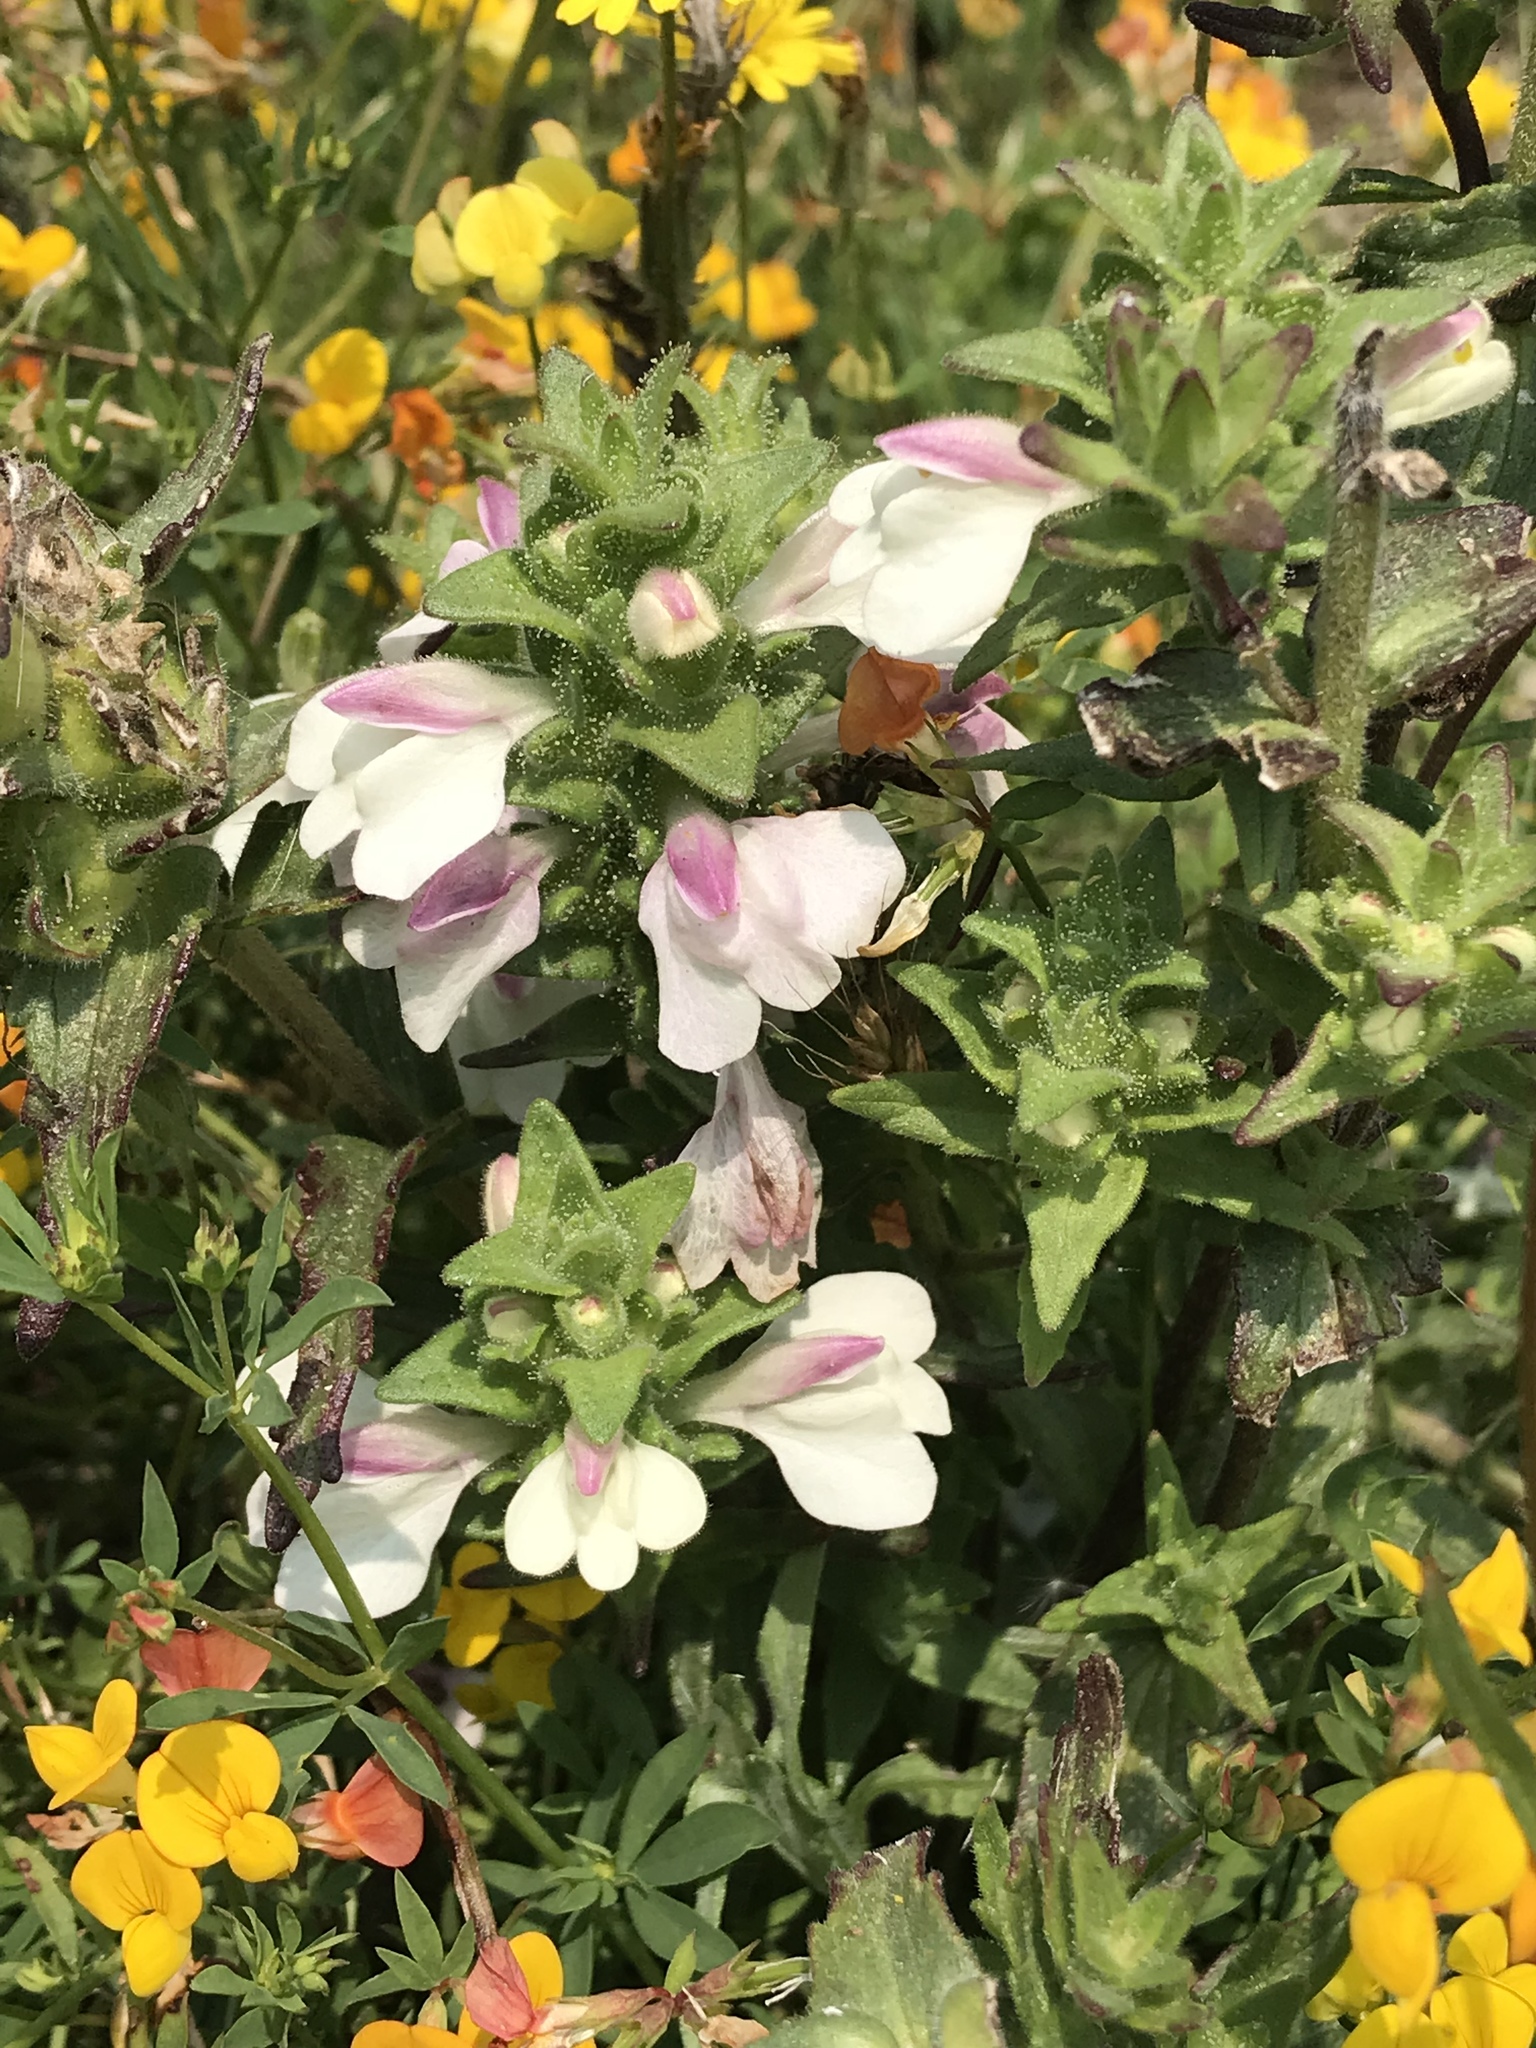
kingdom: Plantae
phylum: Tracheophyta
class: Magnoliopsida
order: Lamiales
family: Orobanchaceae
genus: Bellardia
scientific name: Bellardia trixago
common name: Mediterranean lineseed
